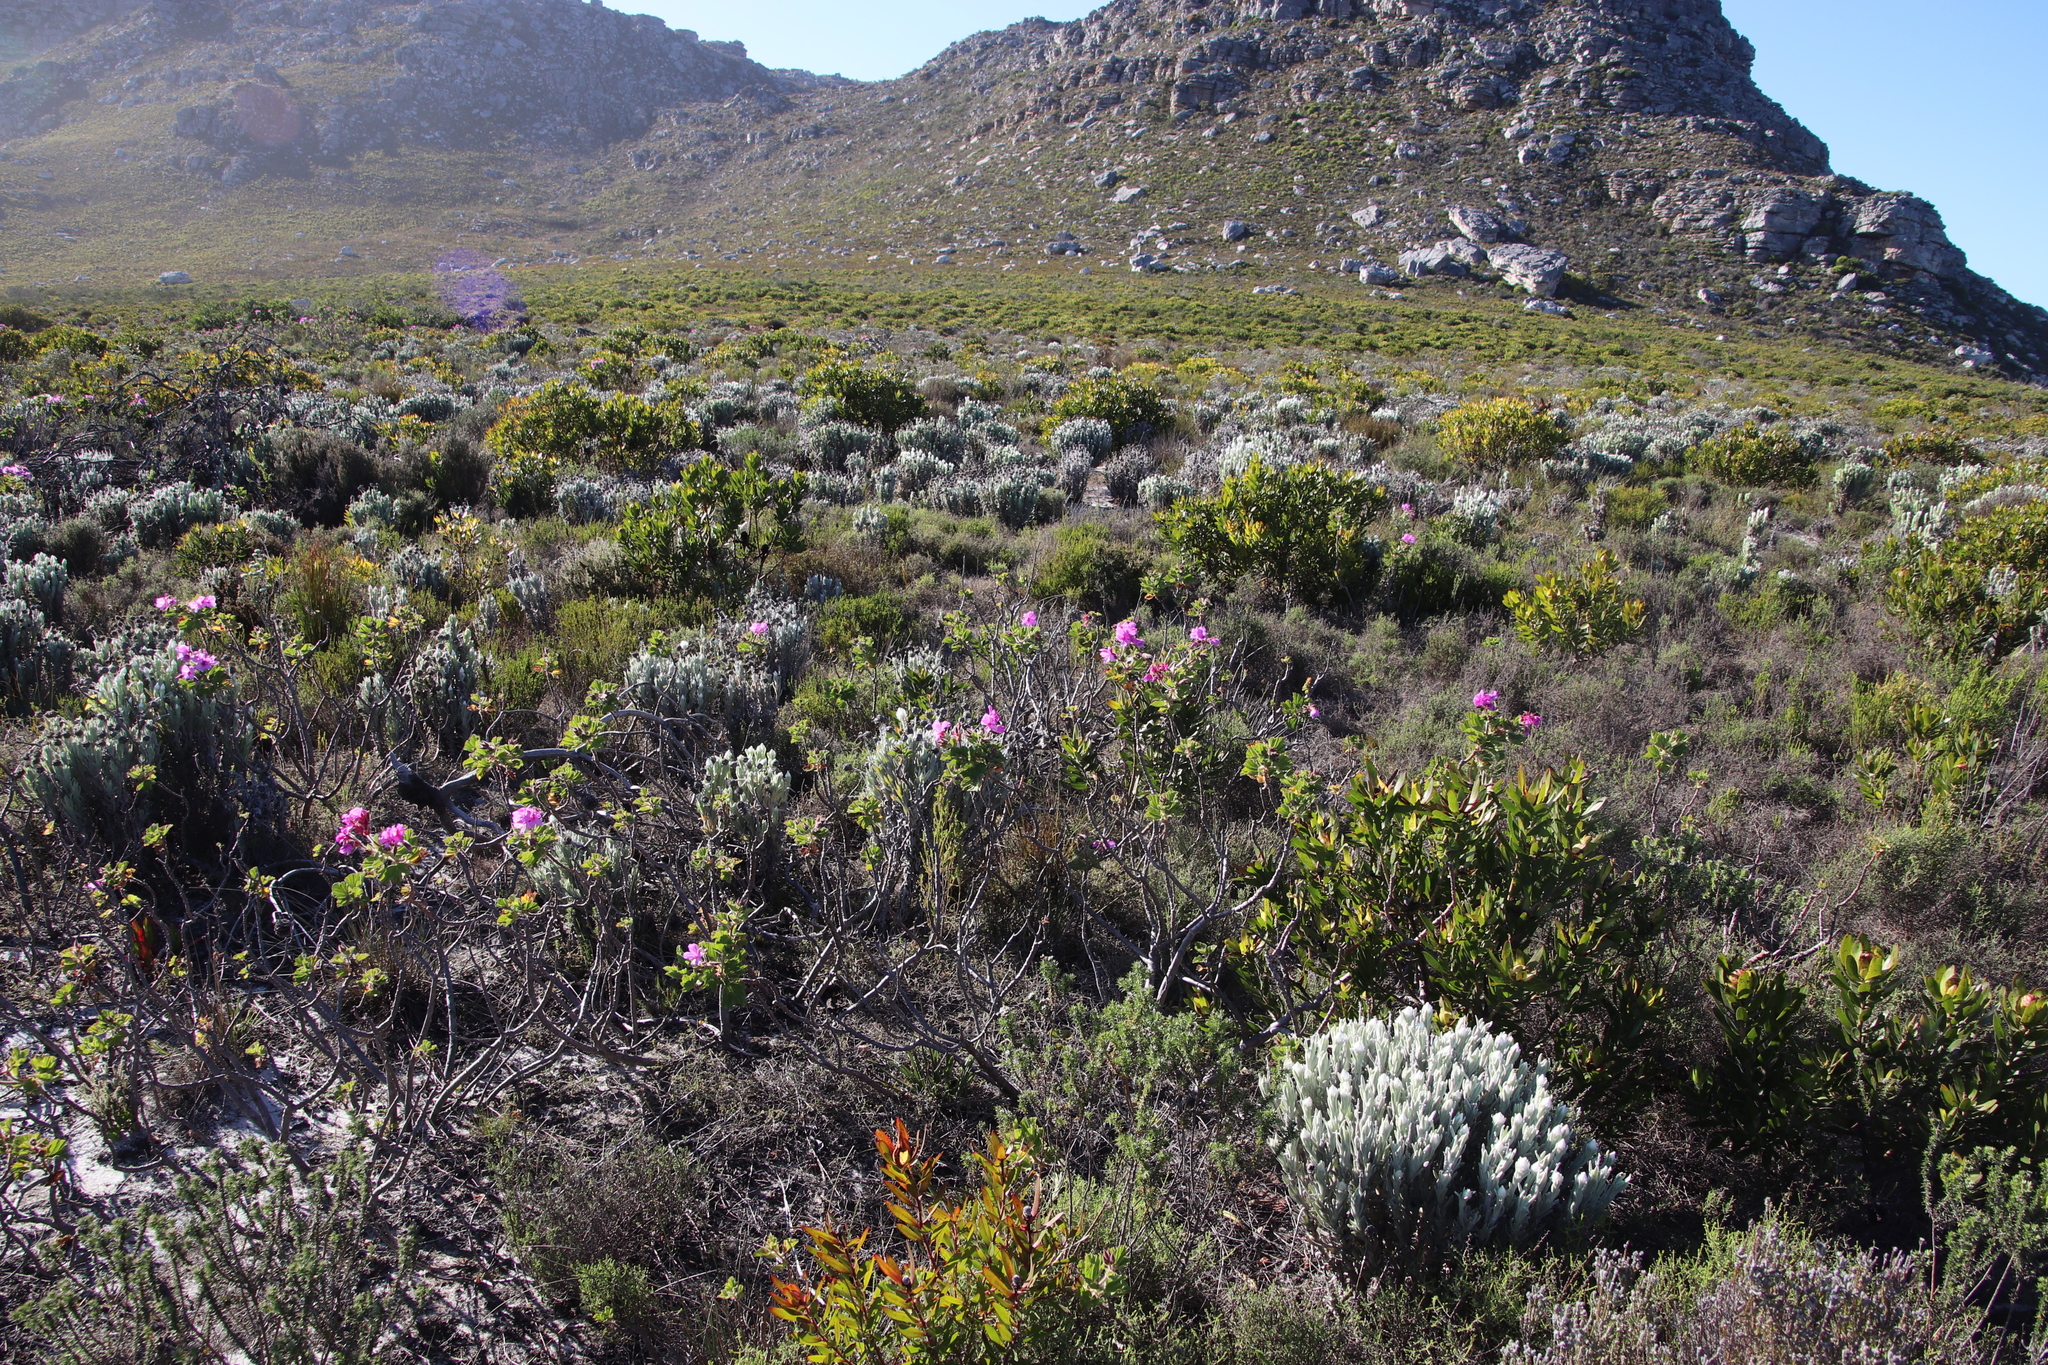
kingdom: Plantae
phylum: Tracheophyta
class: Magnoliopsida
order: Geraniales
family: Geraniaceae
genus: Pelargonium
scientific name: Pelargonium cucullatum
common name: Tree pelargonium
